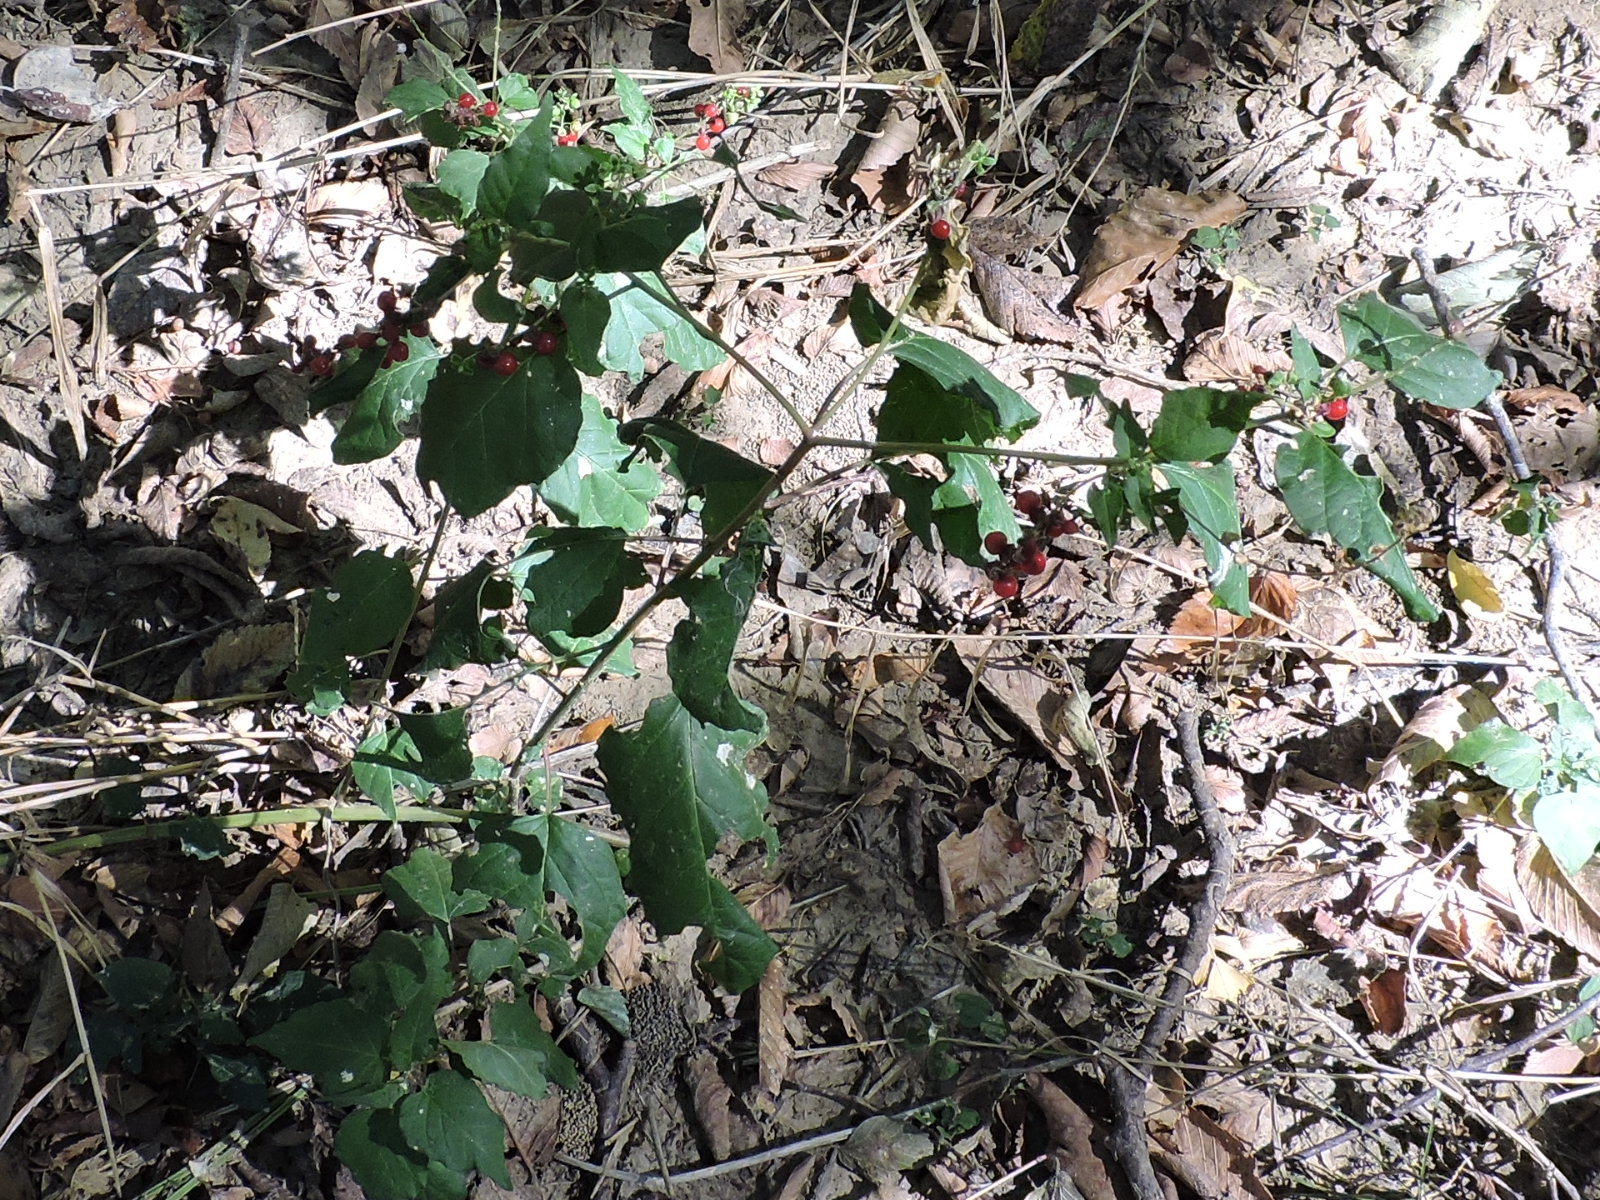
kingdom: Plantae
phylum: Tracheophyta
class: Magnoliopsida
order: Caryophyllales
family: Phytolaccaceae
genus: Rivina
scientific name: Rivina humilis
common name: Rougeplant
